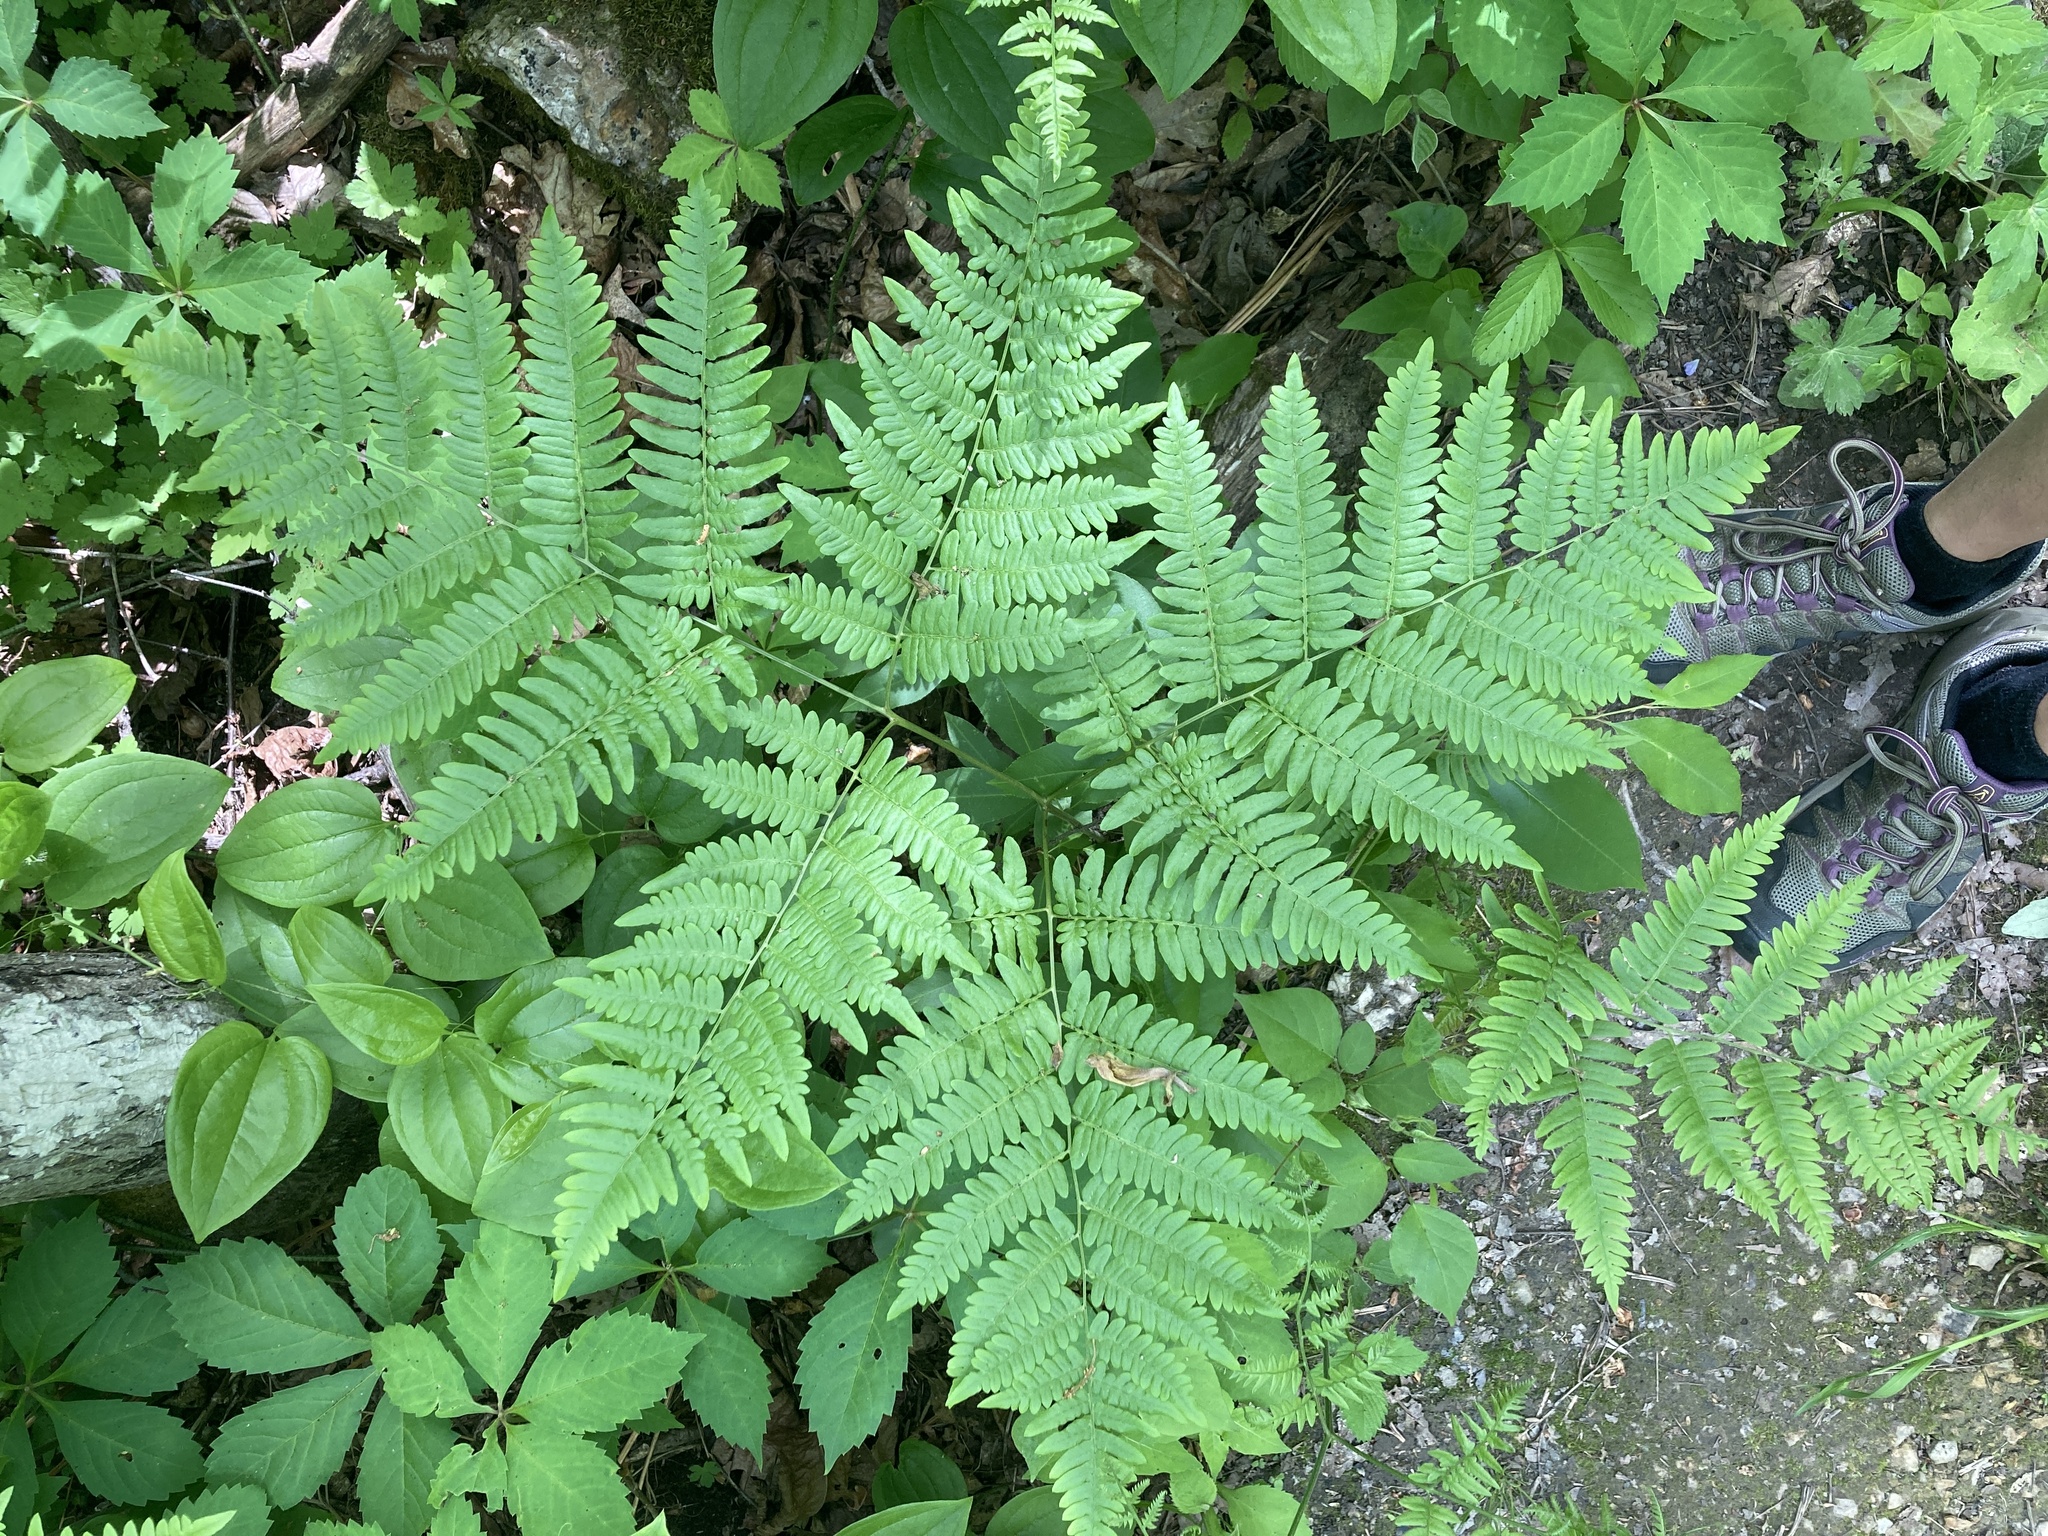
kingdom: Plantae
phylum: Tracheophyta
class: Polypodiopsida
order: Polypodiales
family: Dennstaedtiaceae
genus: Pteridium
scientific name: Pteridium aquilinum
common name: Bracken
